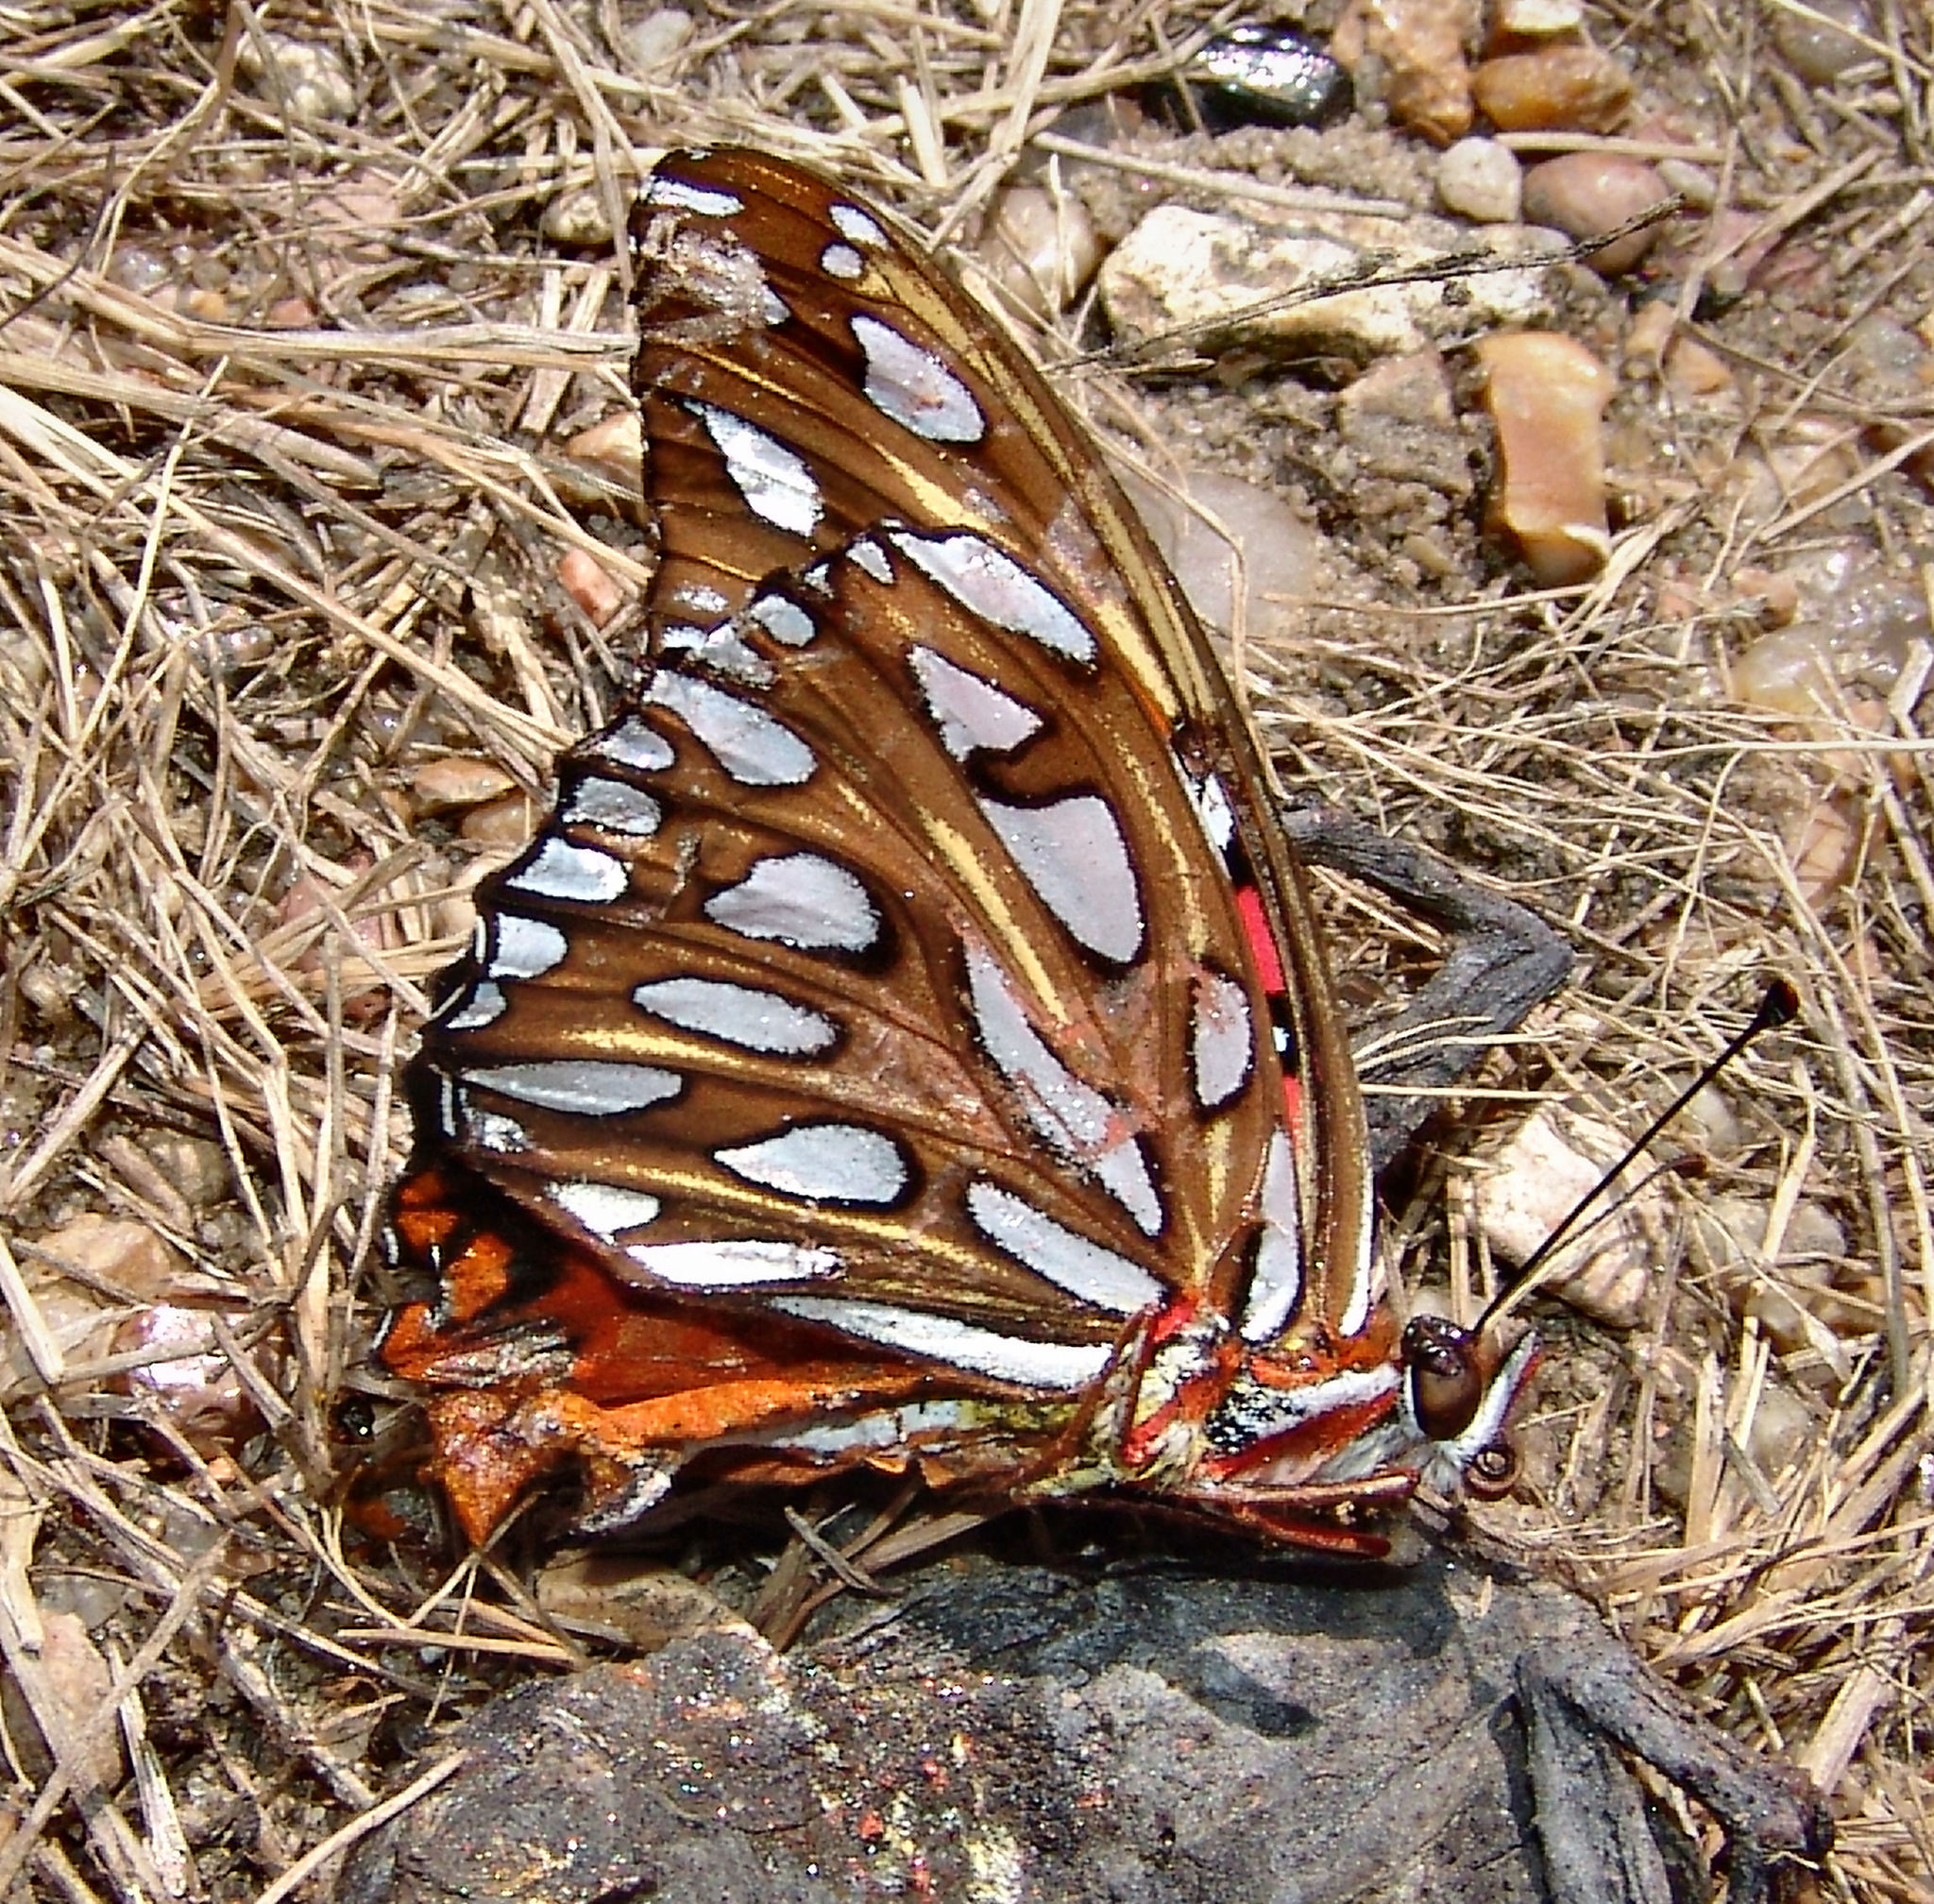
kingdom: Animalia
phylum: Arthropoda
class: Insecta
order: Lepidoptera
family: Nymphalidae
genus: Dione
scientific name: Dione vanillae
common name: Gulf fritillary
